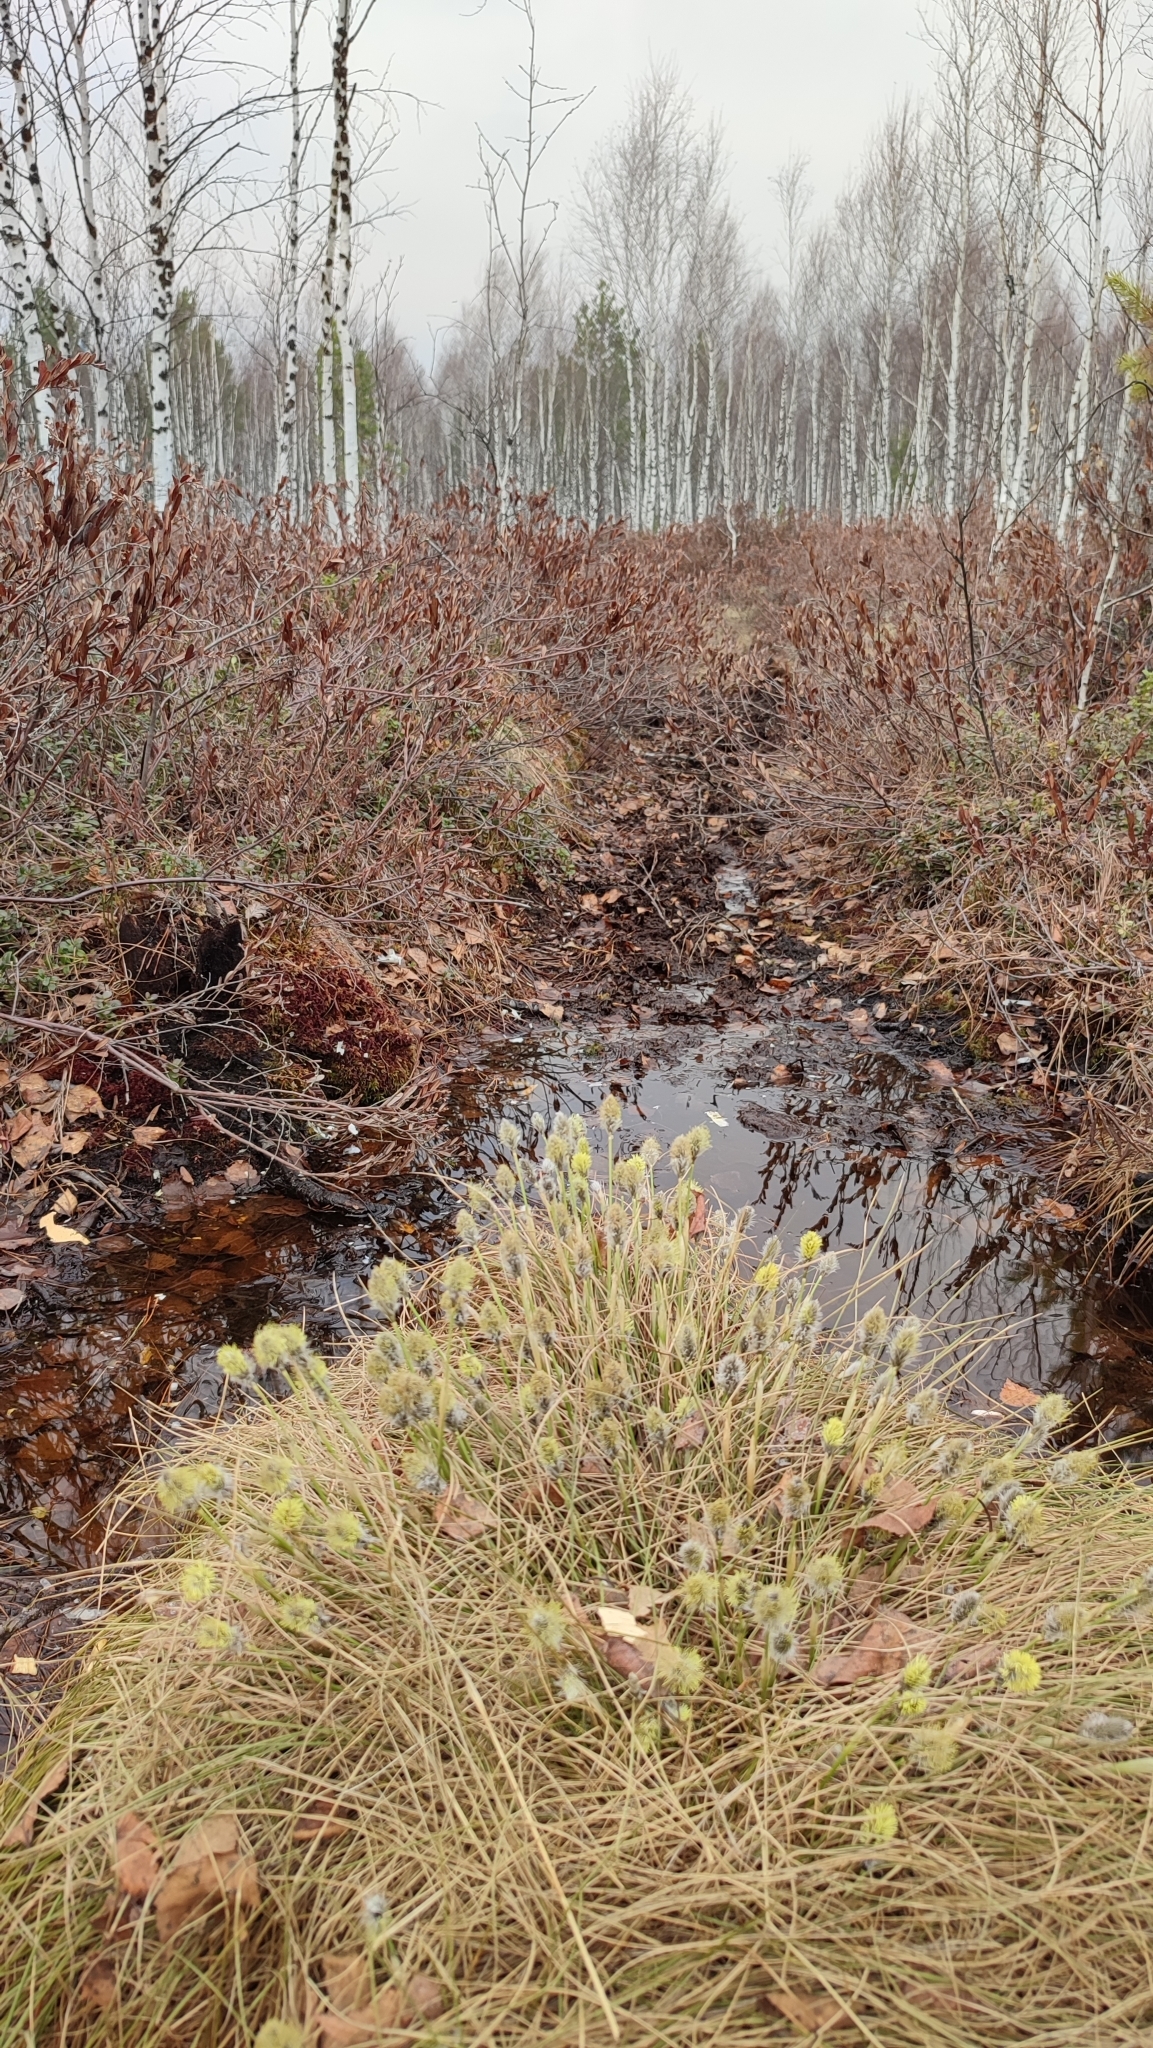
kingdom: Plantae
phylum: Tracheophyta
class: Liliopsida
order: Poales
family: Cyperaceae
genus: Eriophorum
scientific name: Eriophorum vaginatum
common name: Hare's-tail cottongrass
